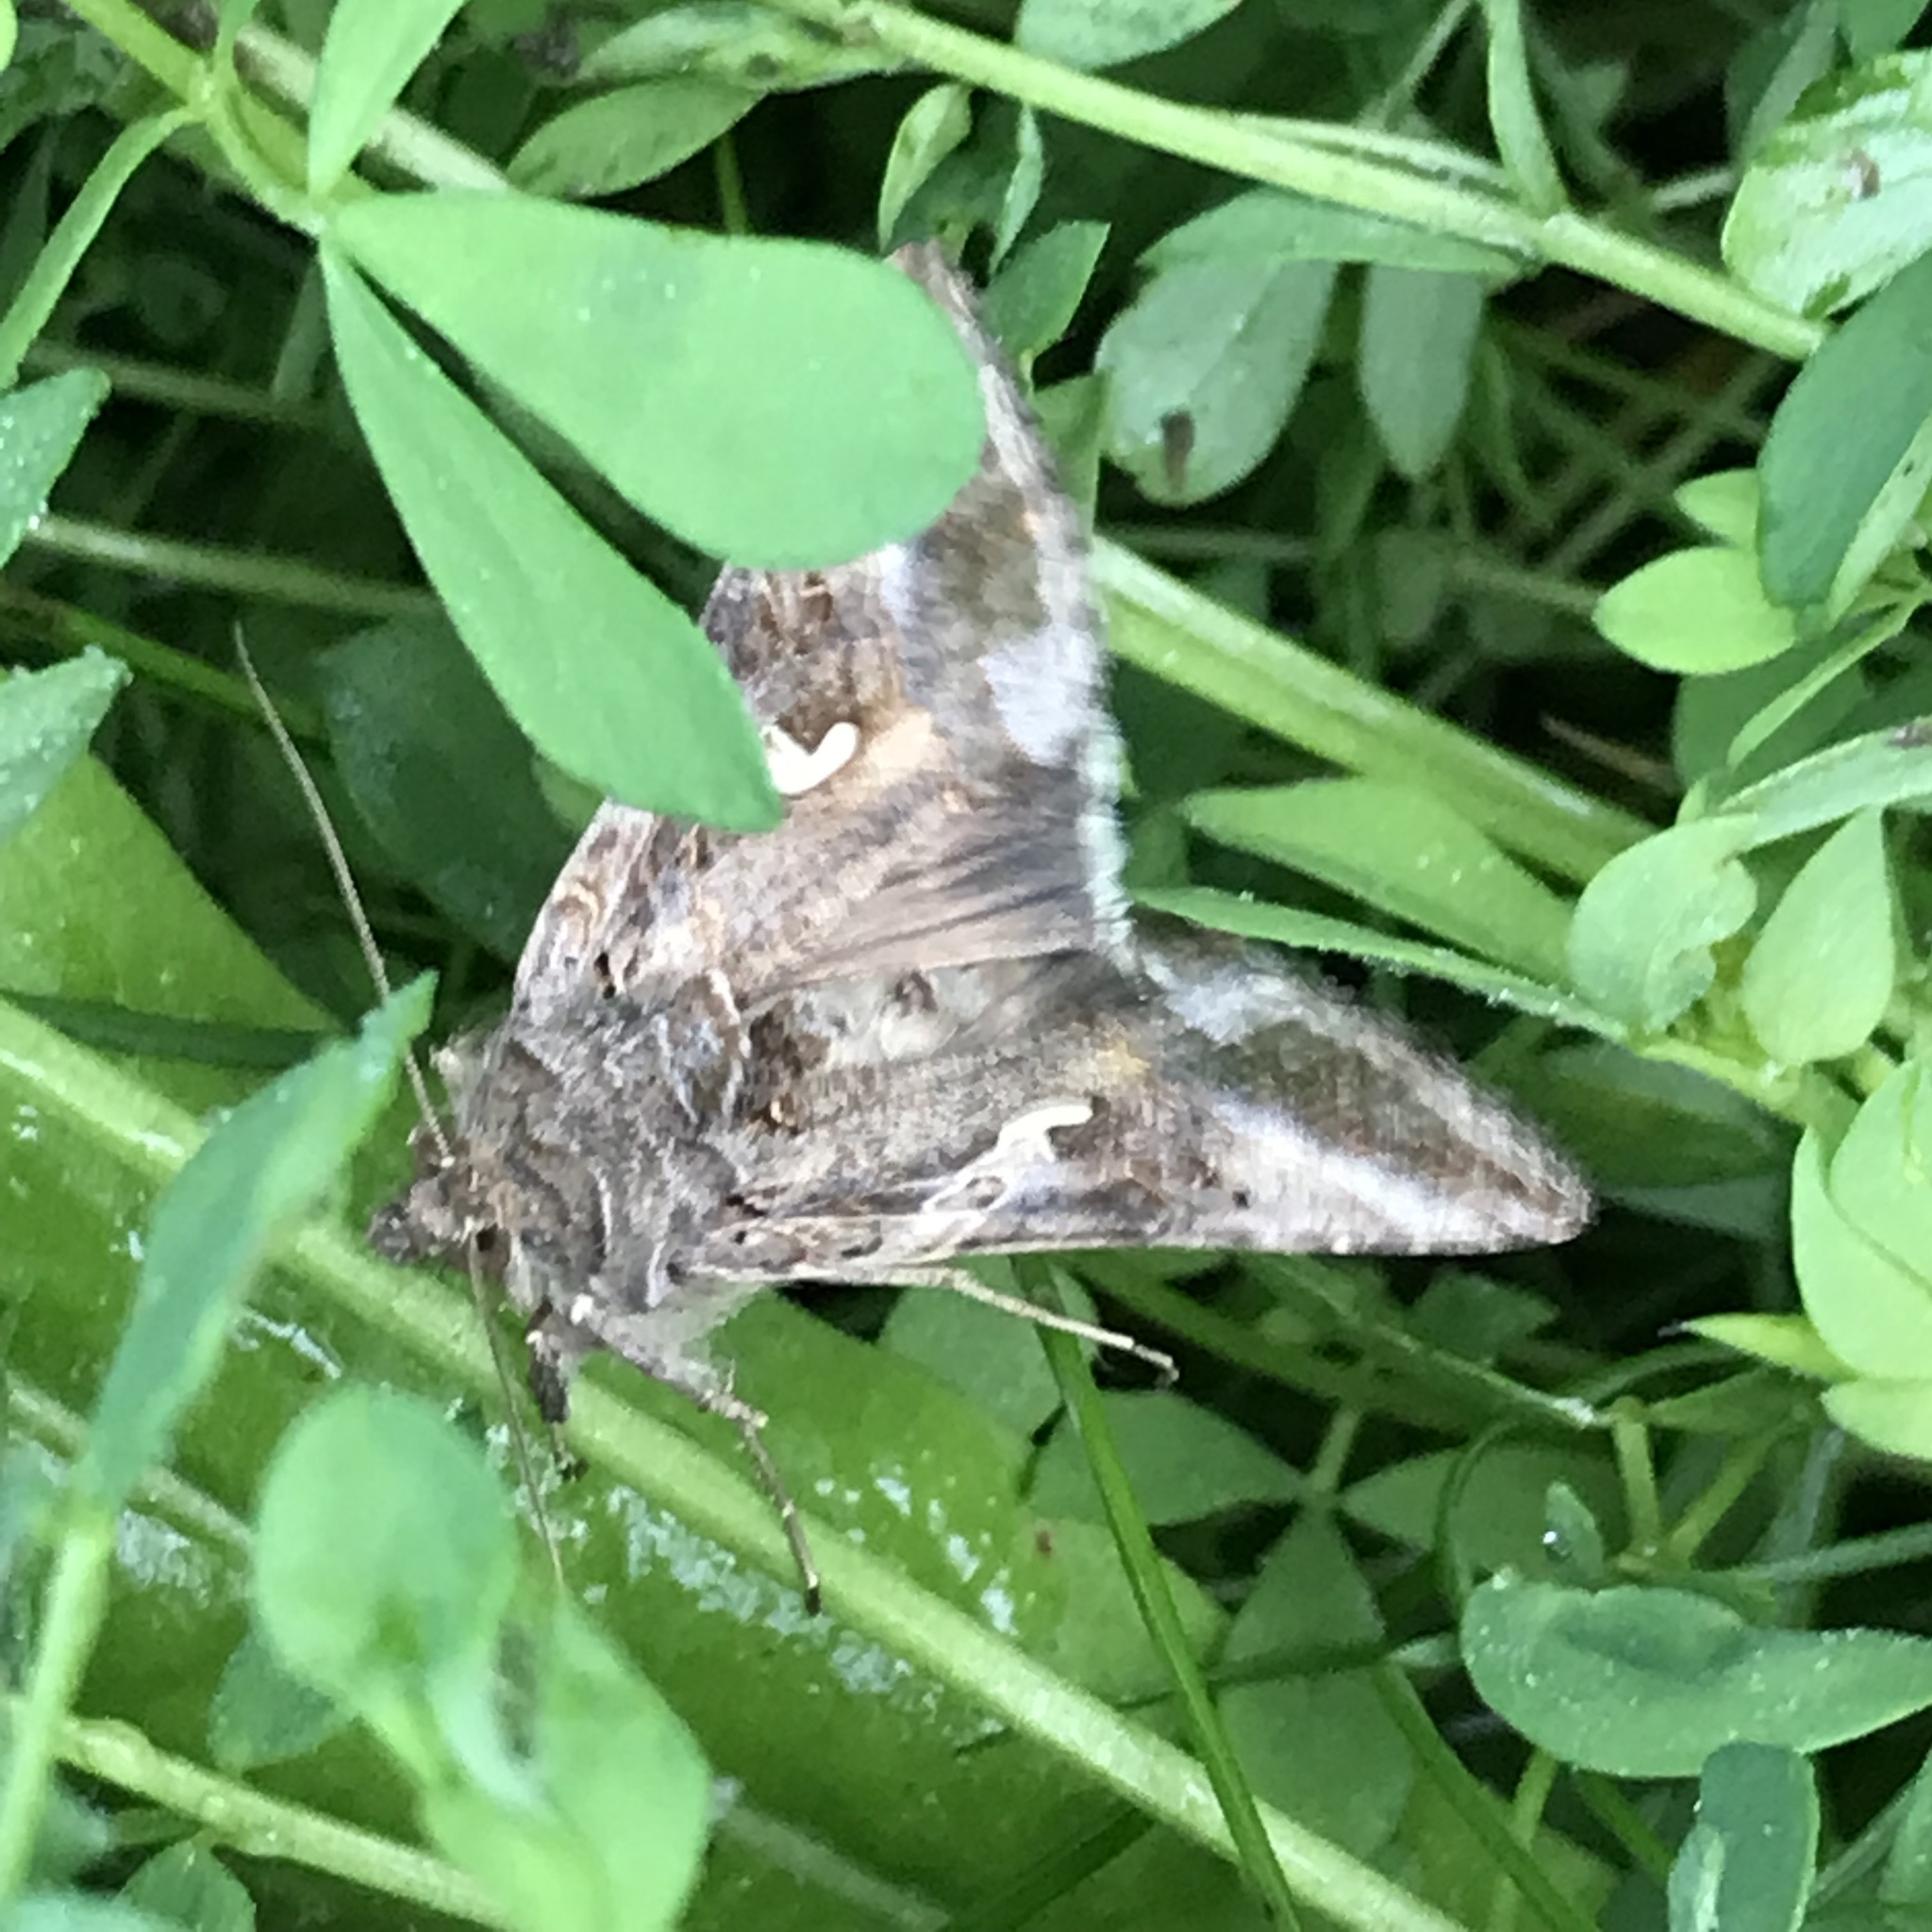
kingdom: Animalia
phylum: Arthropoda
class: Insecta
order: Lepidoptera
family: Noctuidae
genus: Autographa
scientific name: Autographa gamma
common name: Silver y
